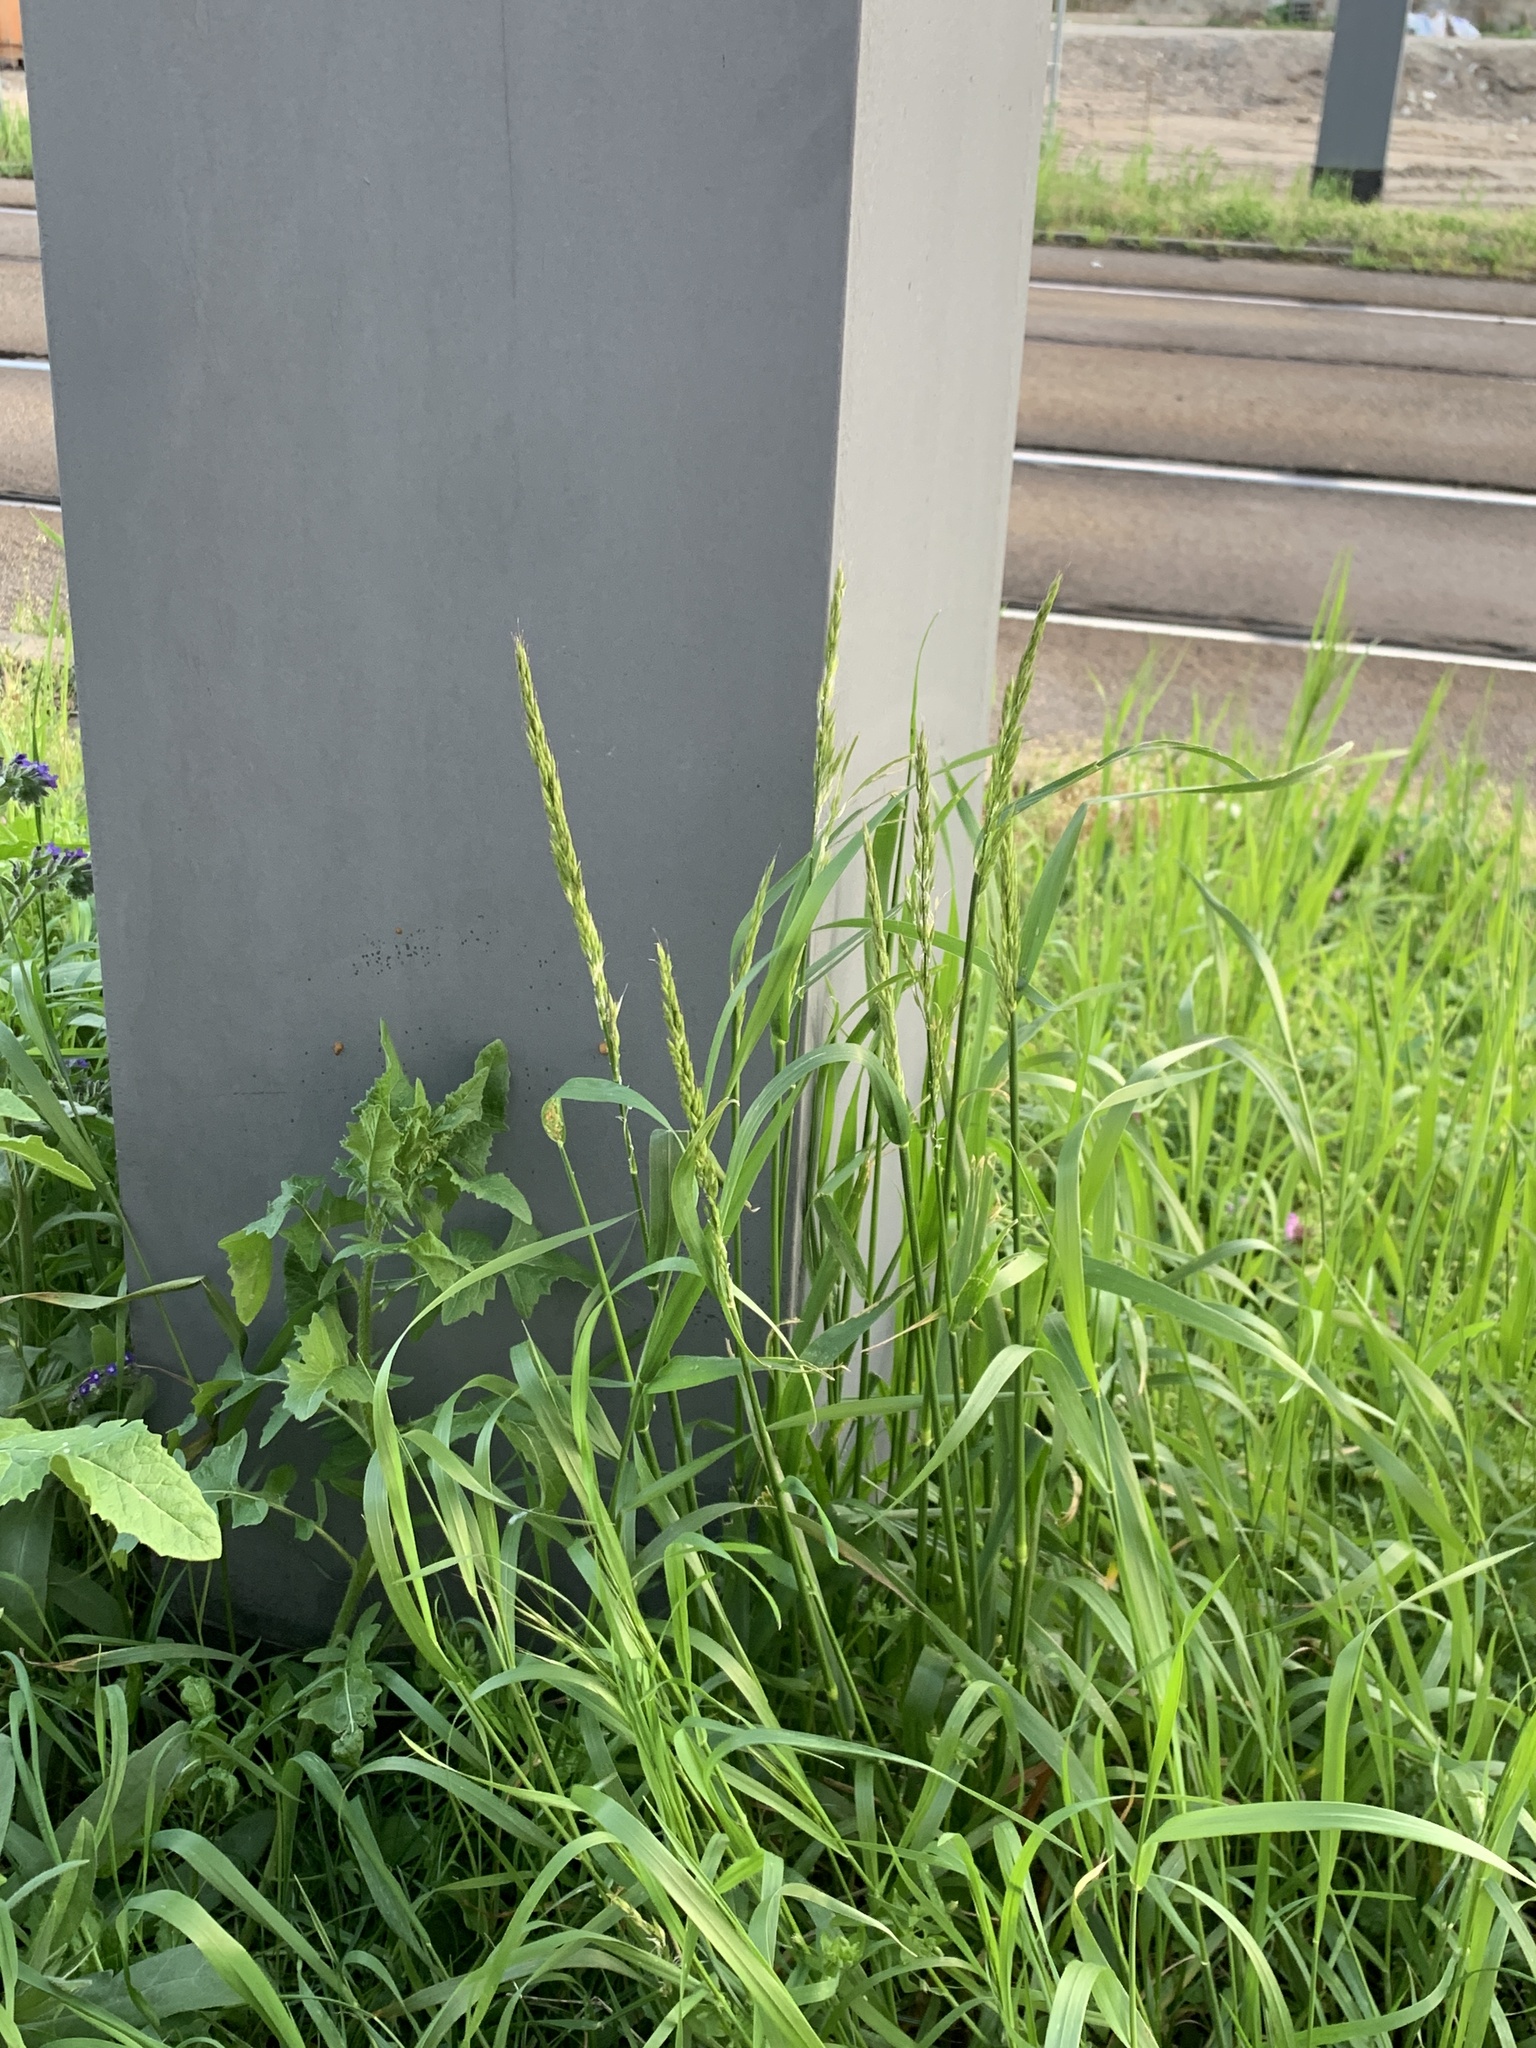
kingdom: Plantae
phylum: Tracheophyta
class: Liliopsida
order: Poales
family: Poaceae
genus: Arrhenatherum
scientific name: Arrhenatherum elatius
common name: Tall oatgrass
